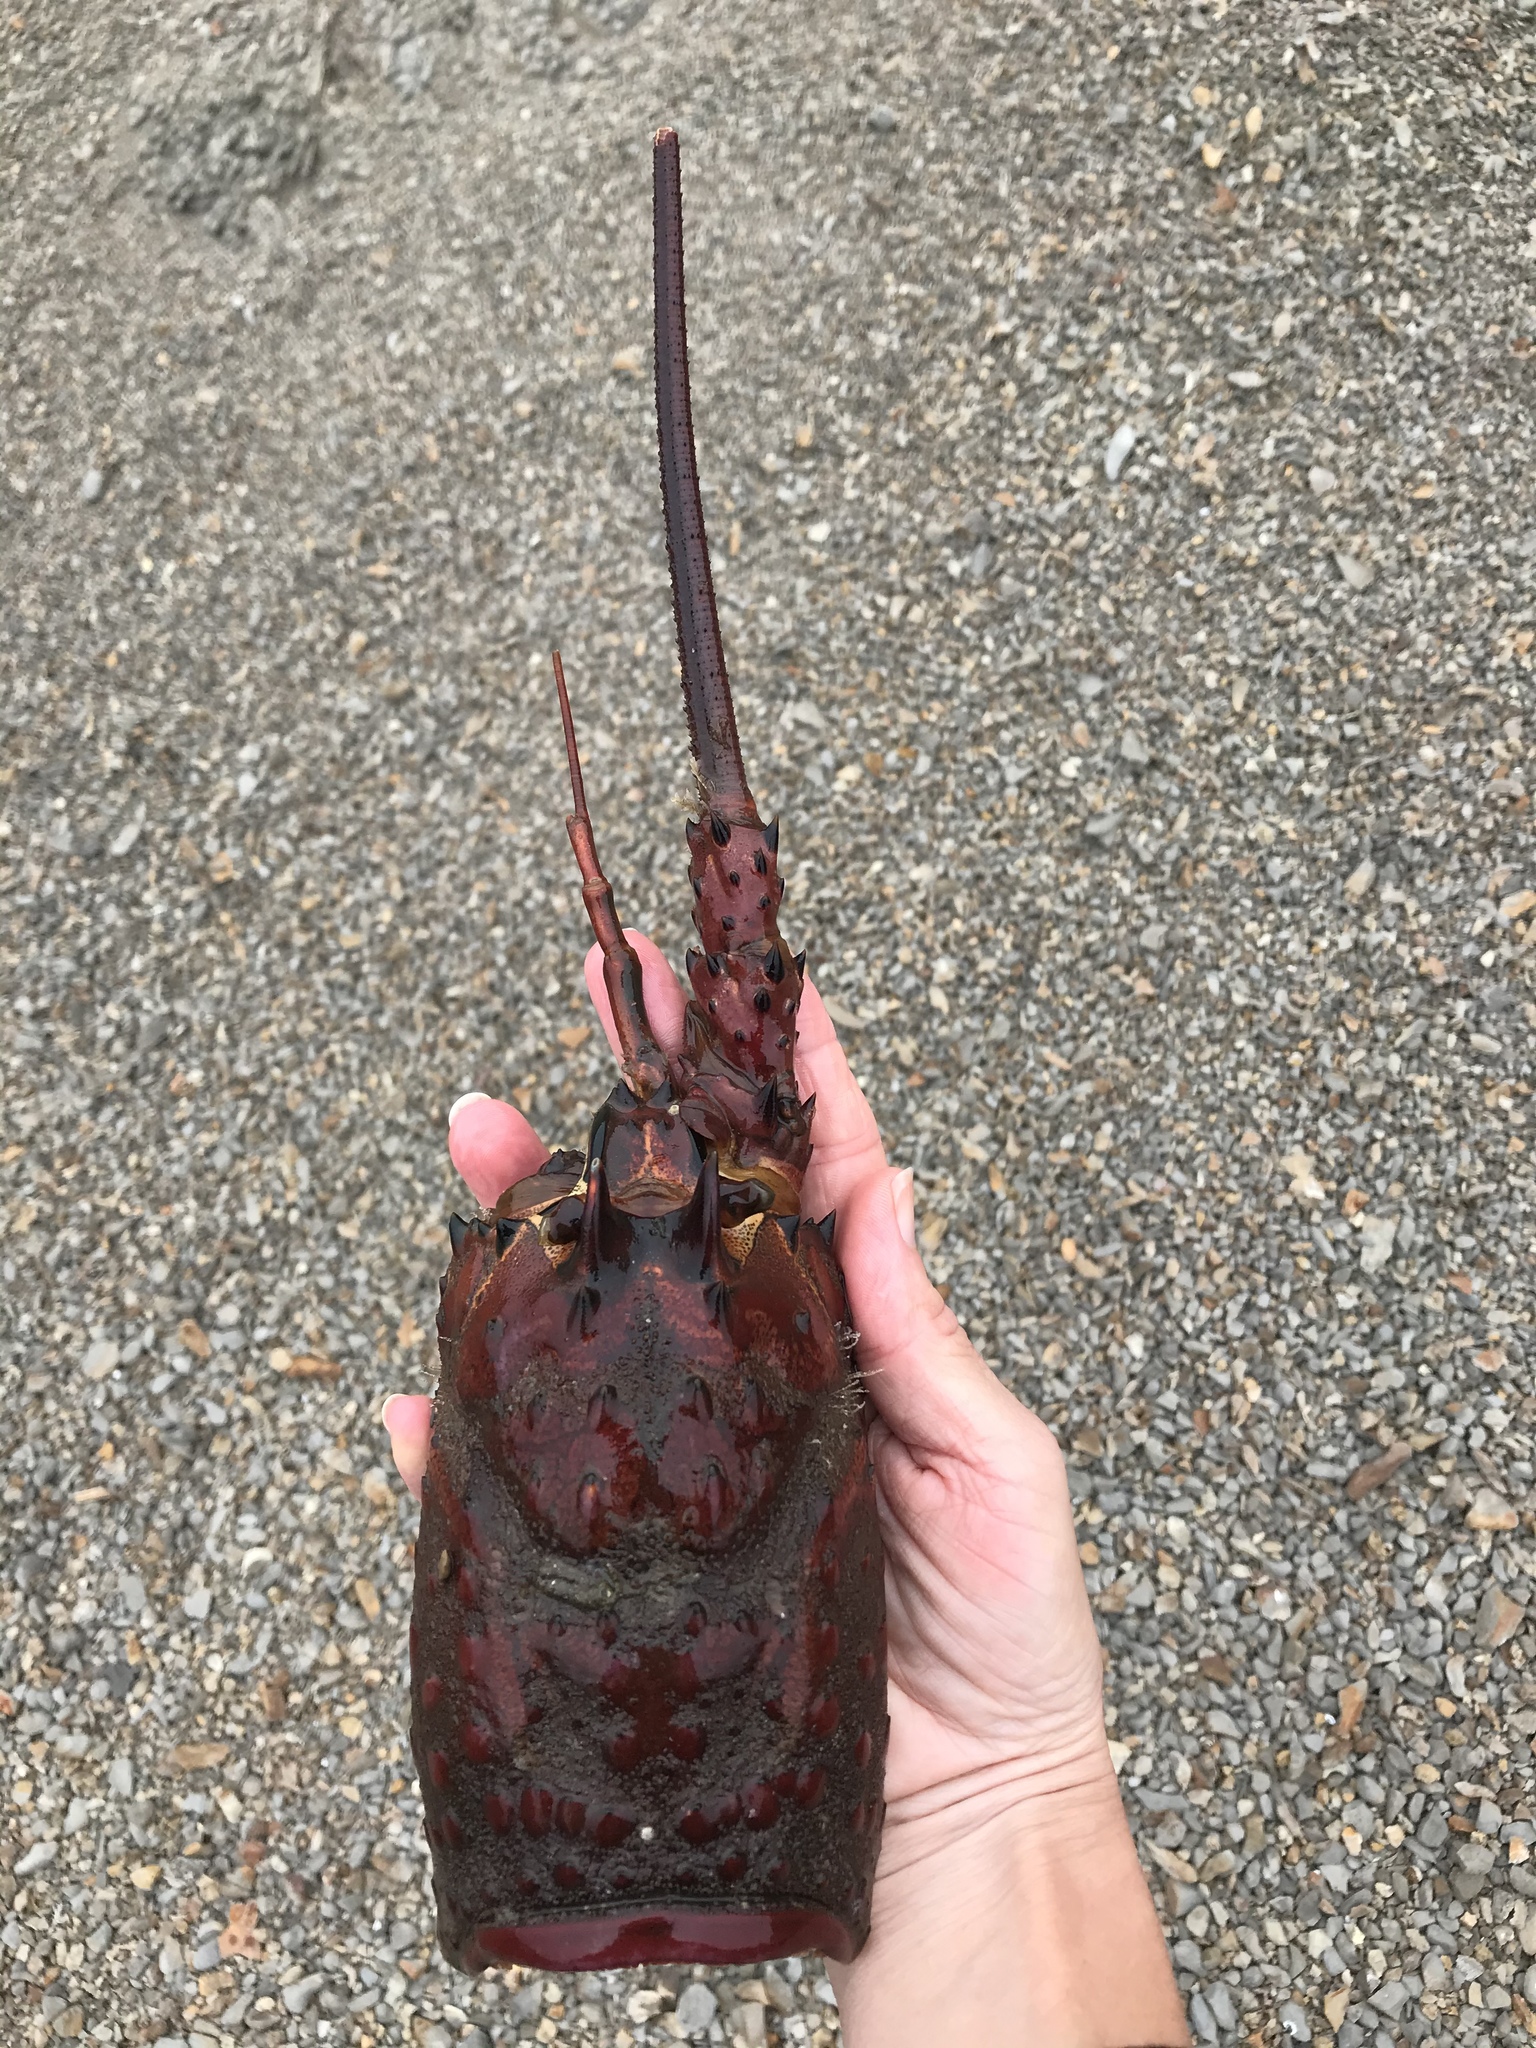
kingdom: Animalia
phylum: Arthropoda
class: Malacostraca
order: Decapoda
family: Palinuridae
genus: Panulirus
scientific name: Panulirus interruptus
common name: California spiny lobster
